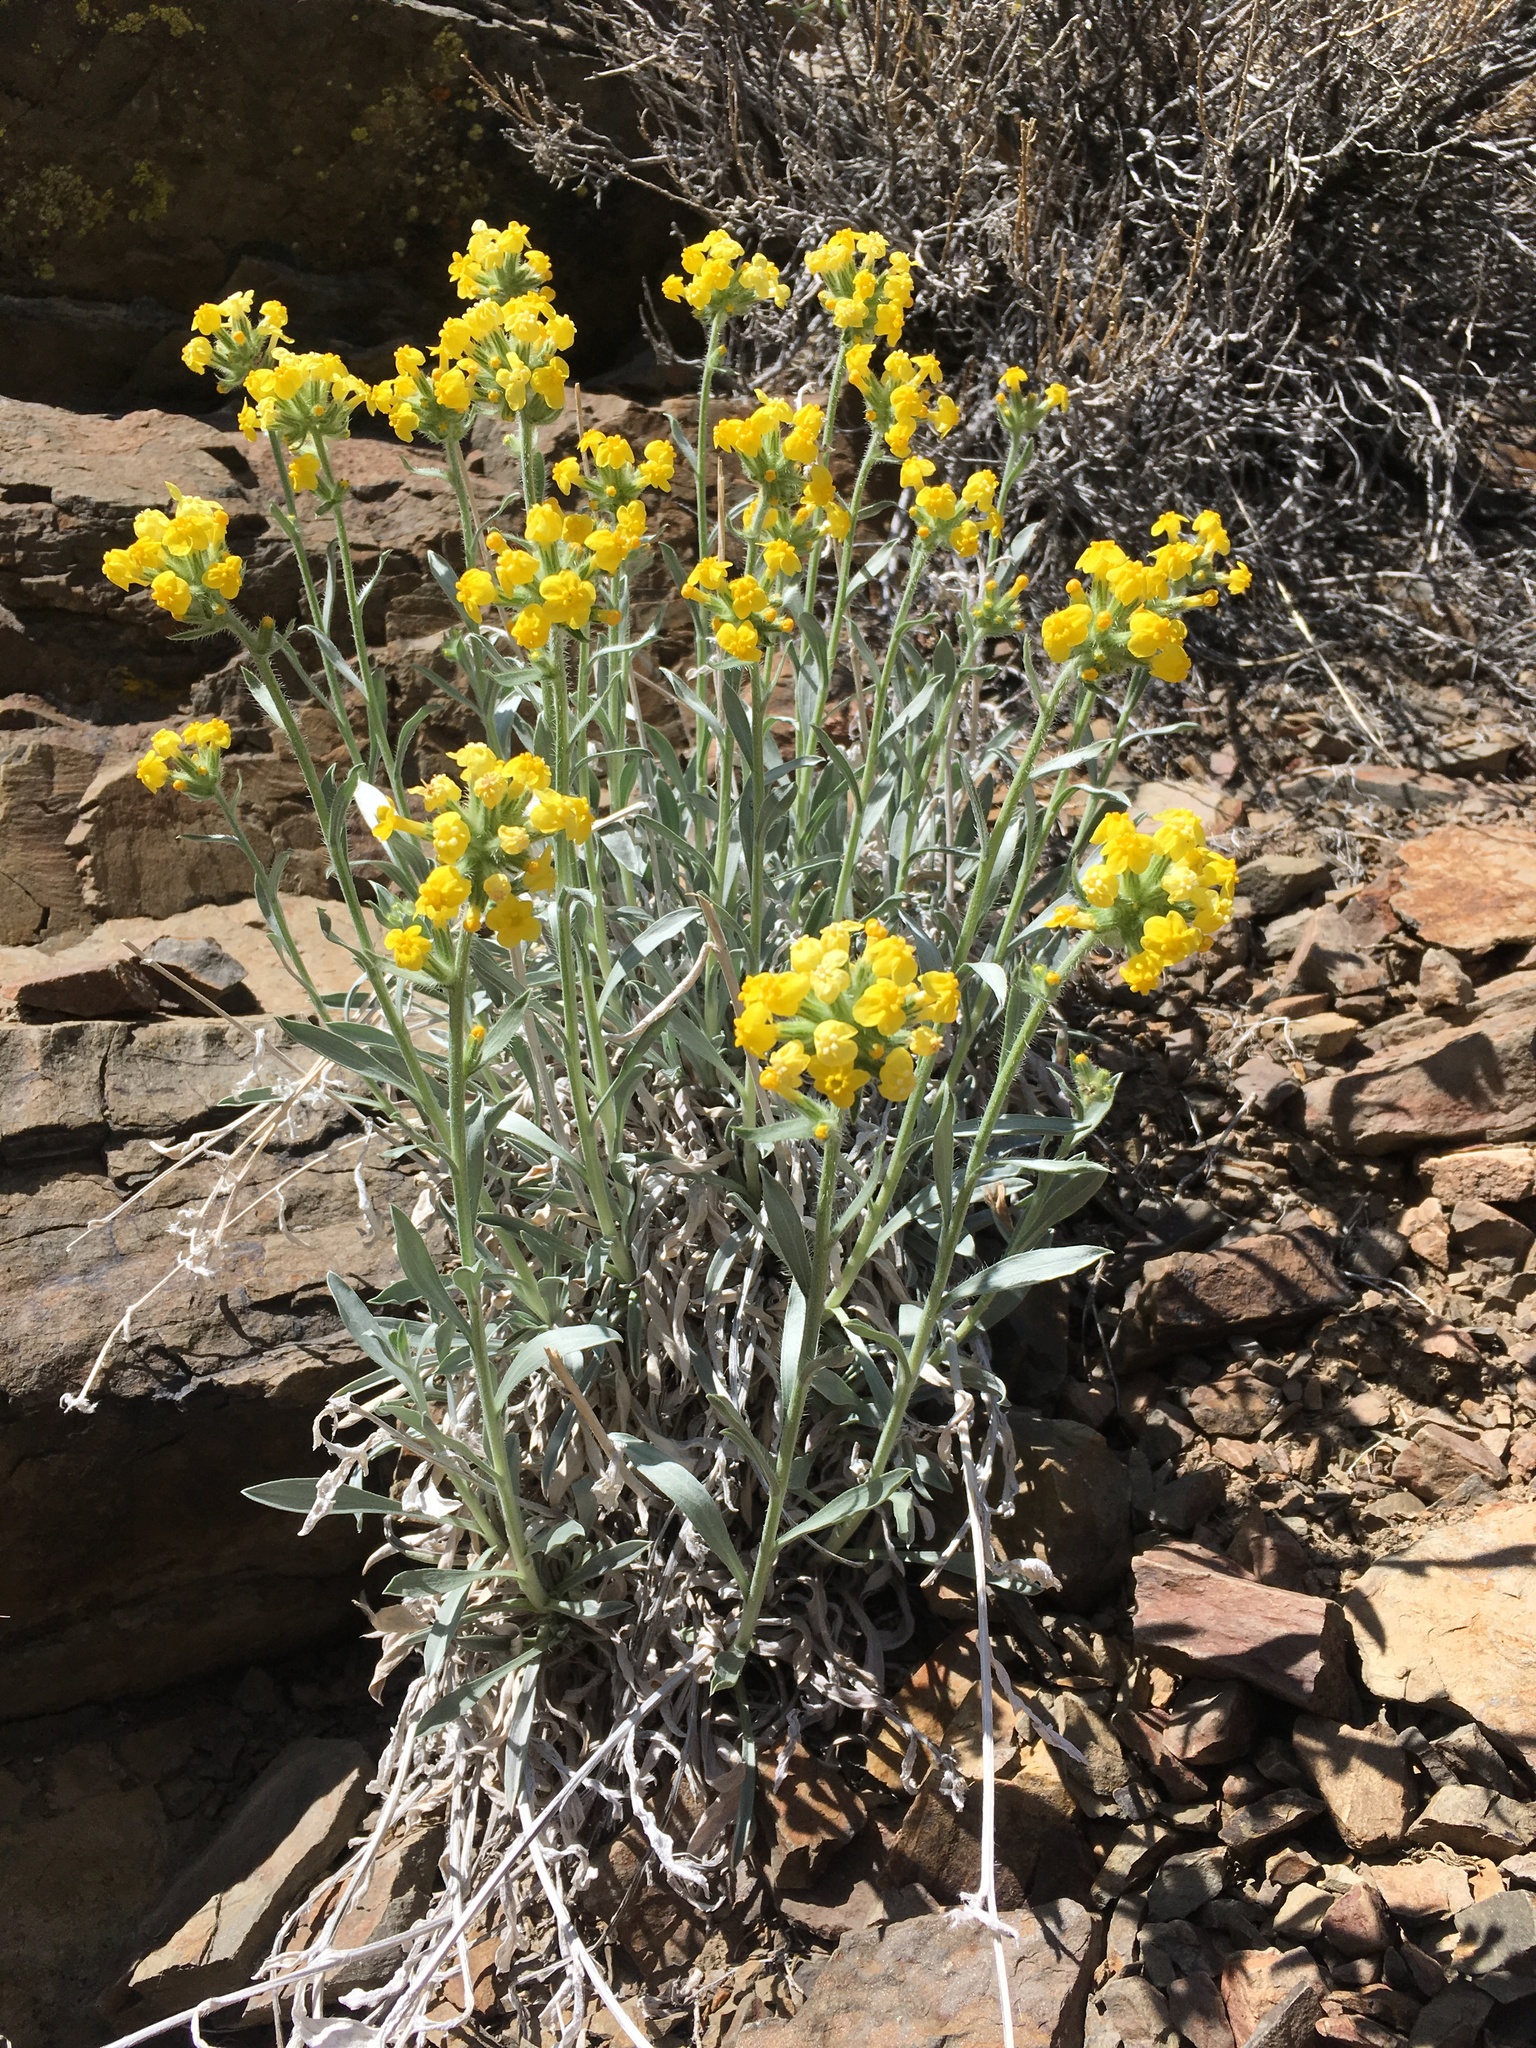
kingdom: Plantae
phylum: Tracheophyta
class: Magnoliopsida
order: Boraginales
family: Boraginaceae
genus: Oreocarya
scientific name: Oreocarya confertiflora
